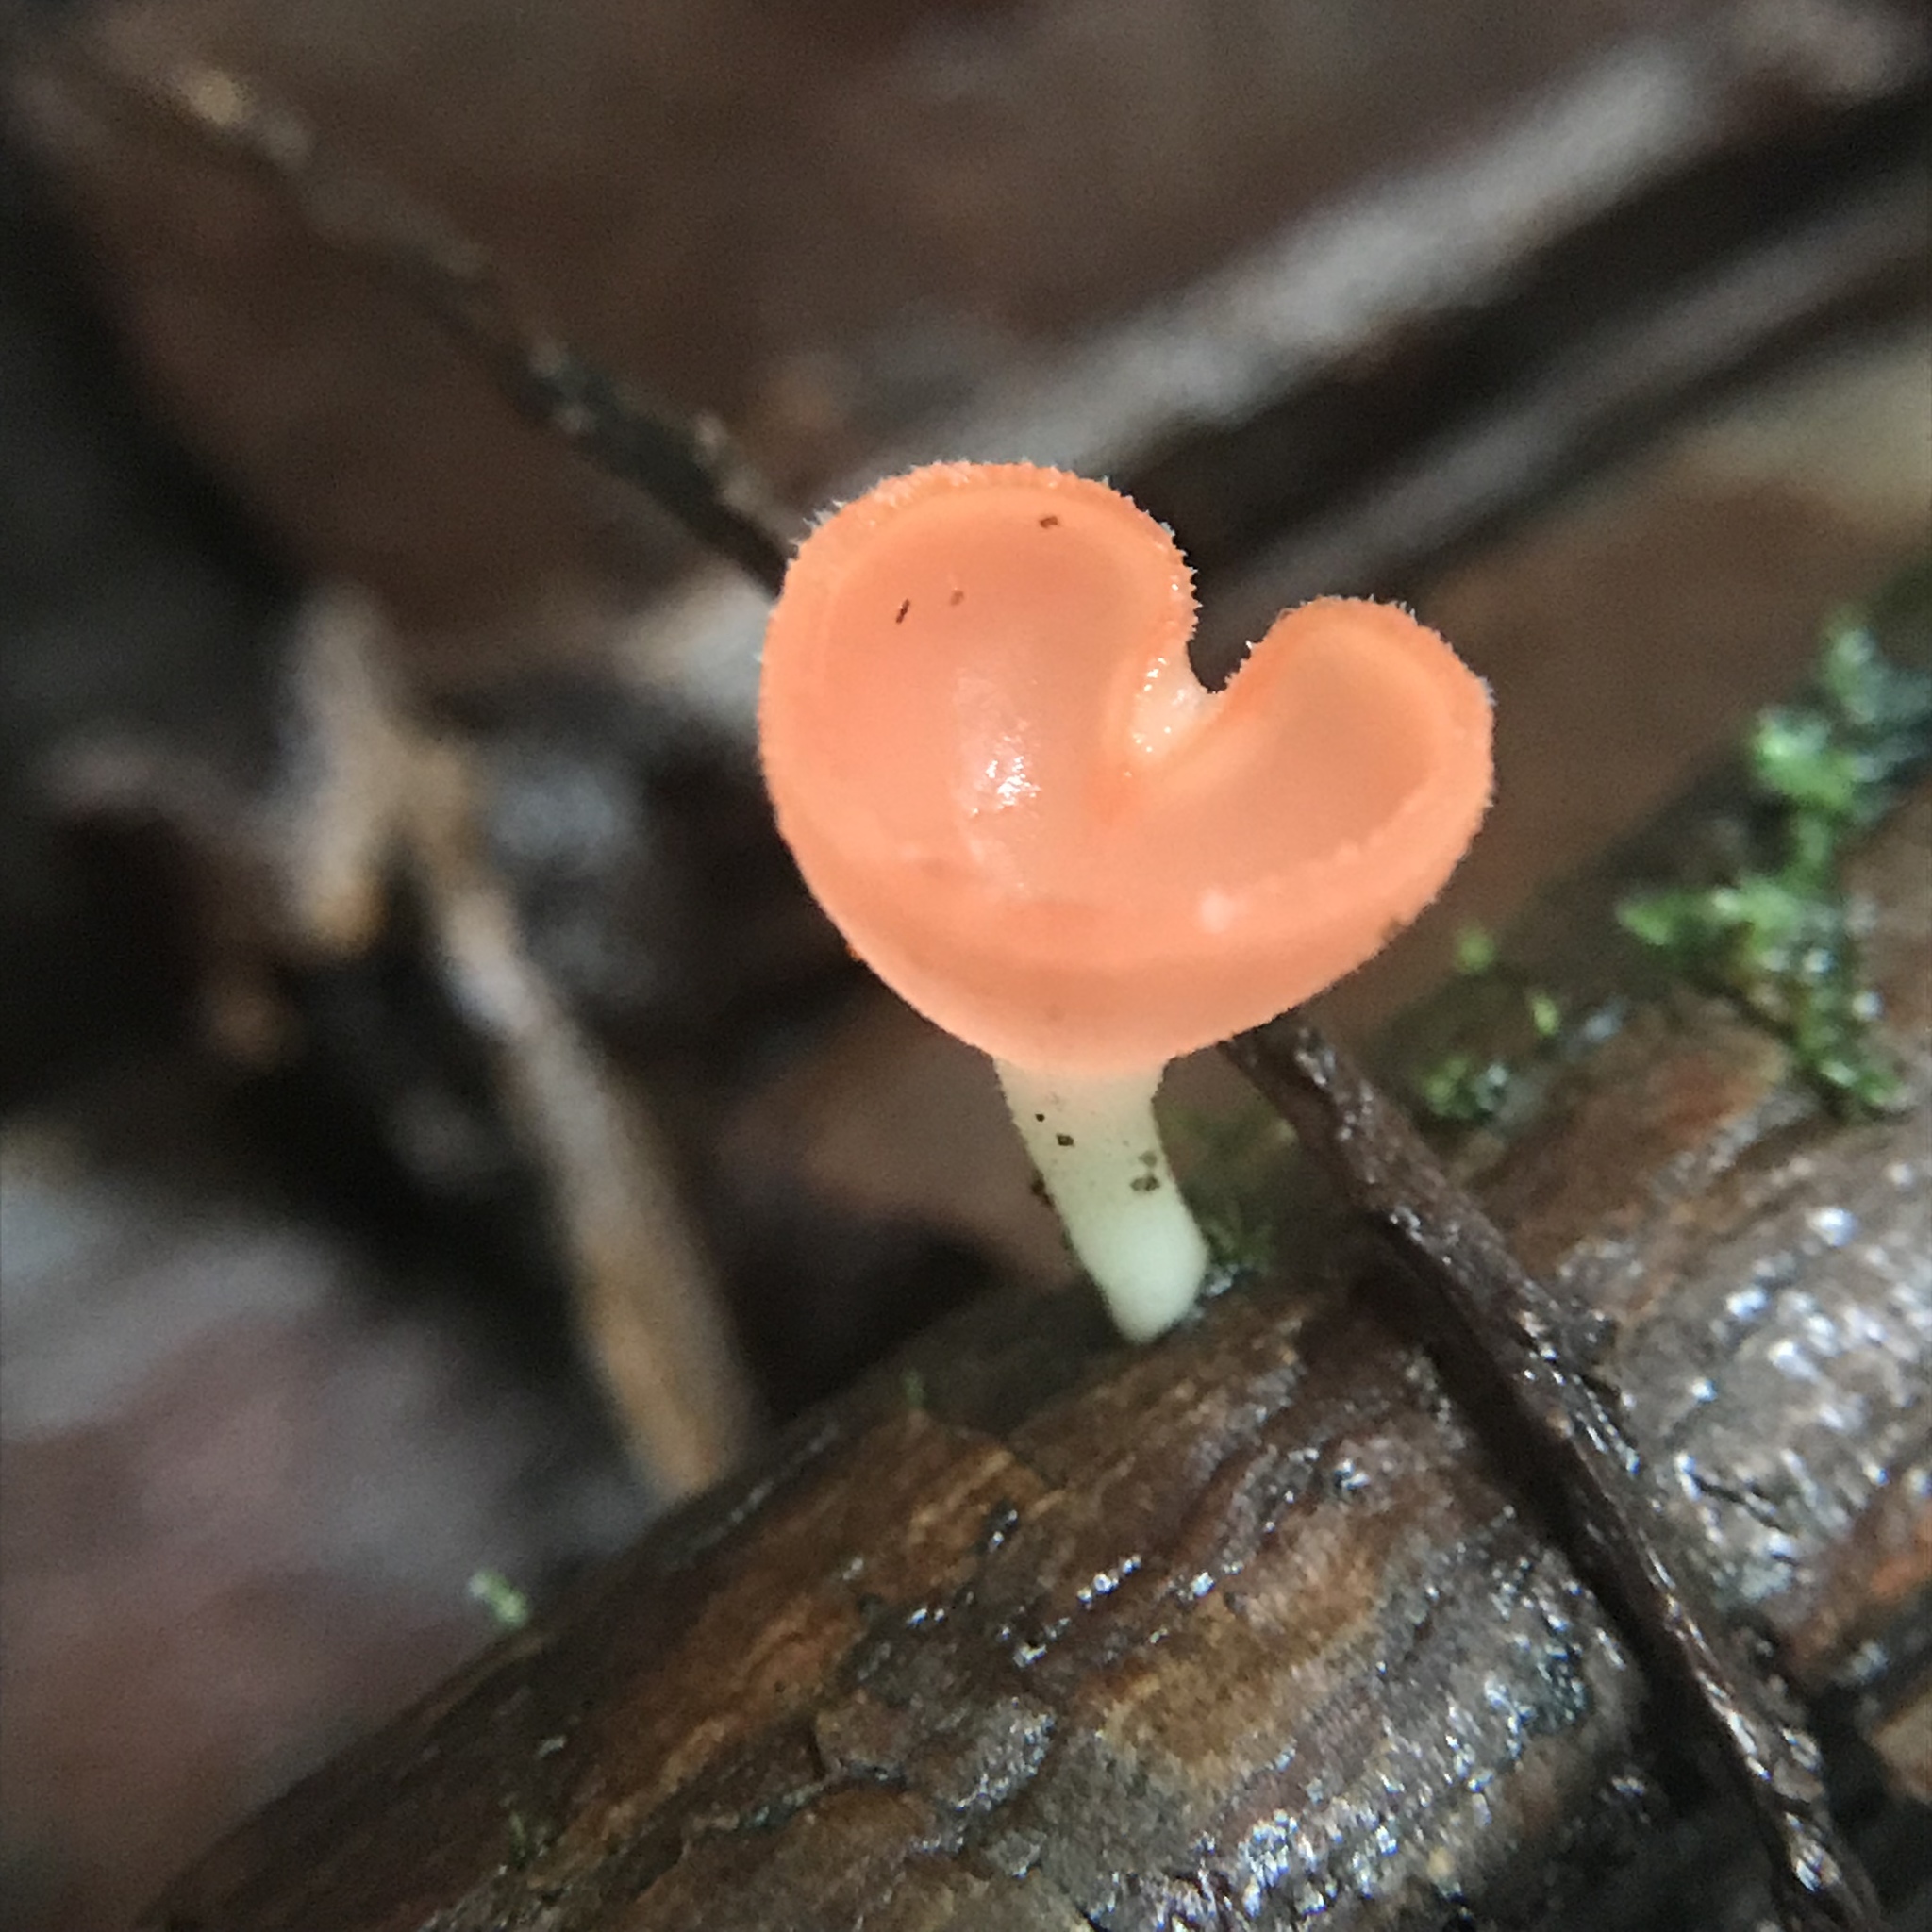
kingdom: Fungi
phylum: Ascomycota
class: Pezizomycetes
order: Pezizales
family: Sarcoscyphaceae
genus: Cookeina
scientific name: Cookeina speciosa
